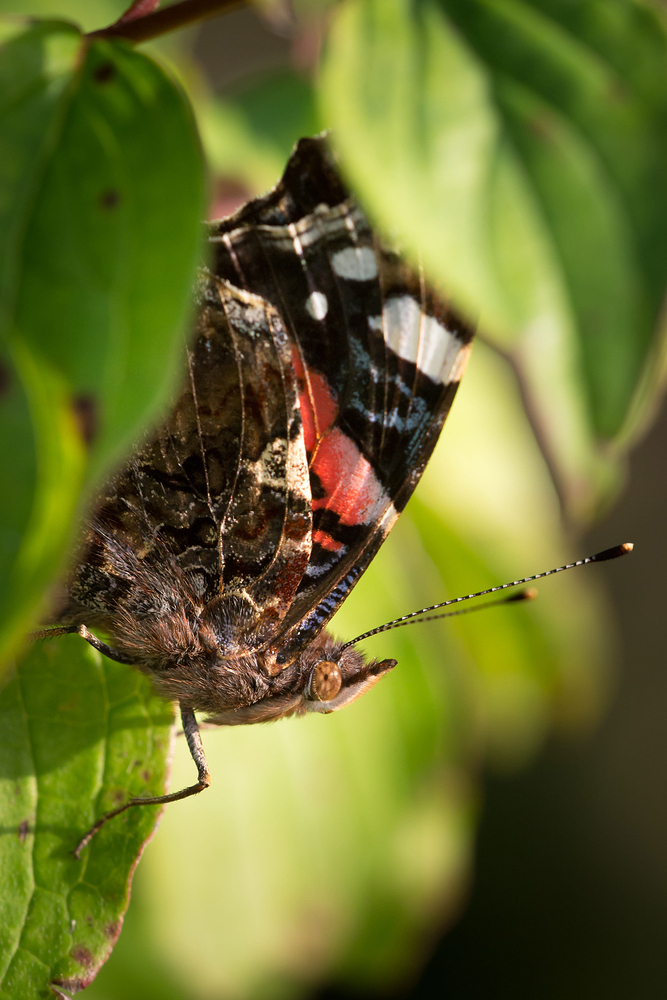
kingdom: Animalia
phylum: Arthropoda
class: Insecta
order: Lepidoptera
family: Nymphalidae
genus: Vanessa
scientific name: Vanessa atalanta
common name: Red admiral
